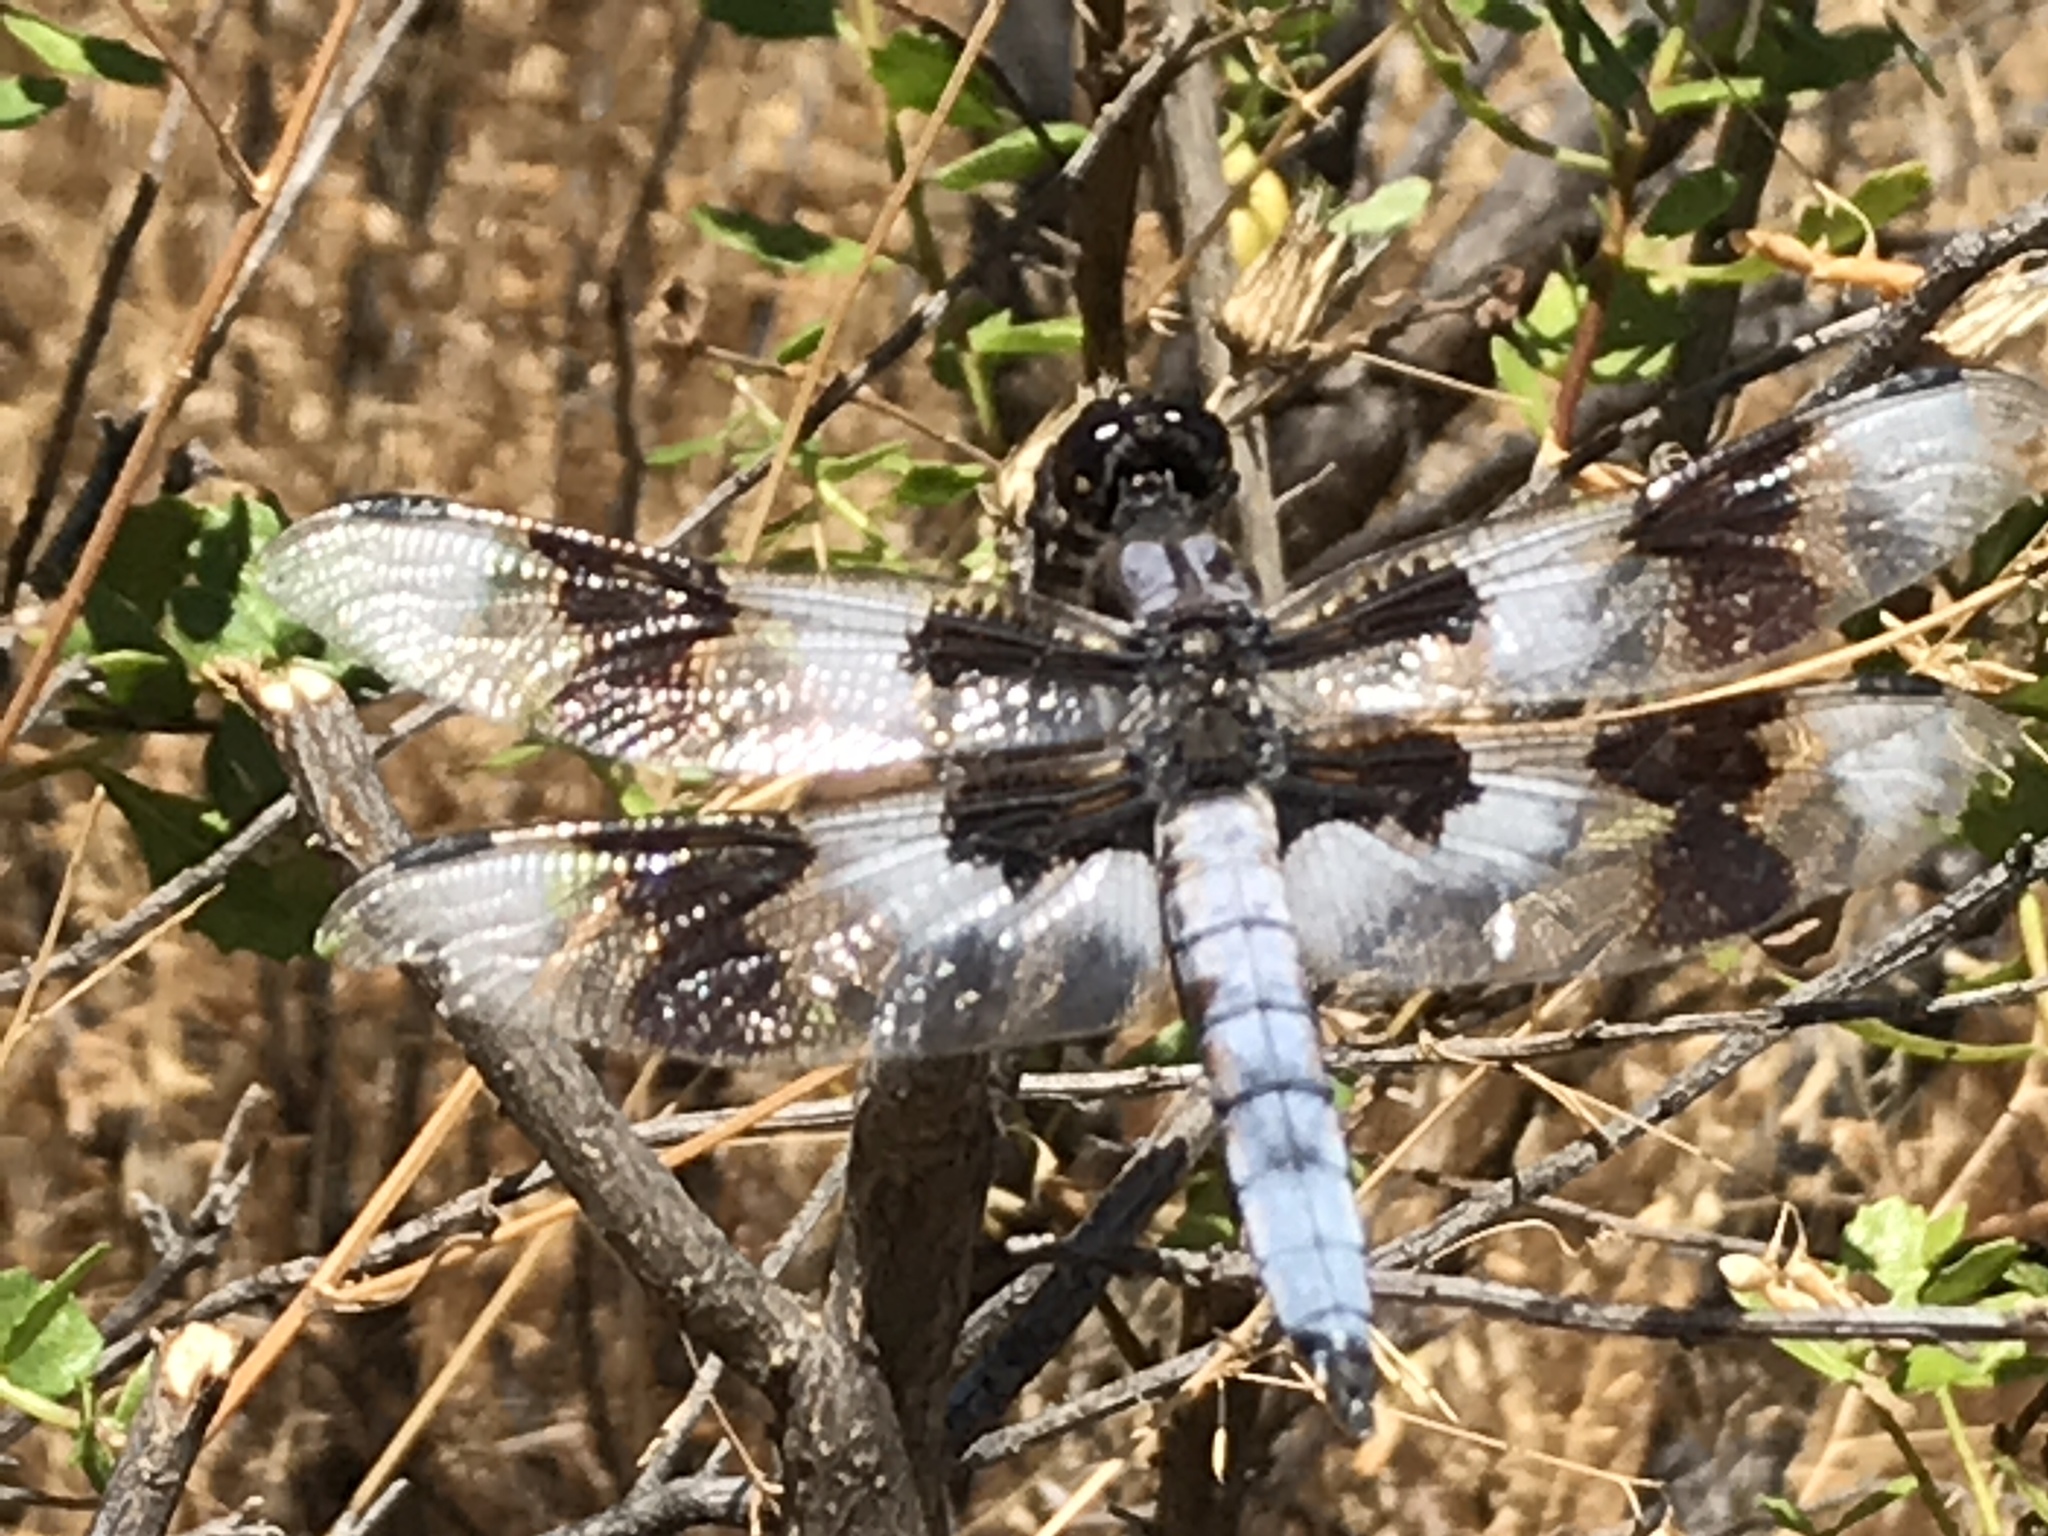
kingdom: Animalia
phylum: Arthropoda
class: Insecta
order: Odonata
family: Libellulidae
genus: Libellula
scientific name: Libellula forensis
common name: Eight-spotted skimmer
